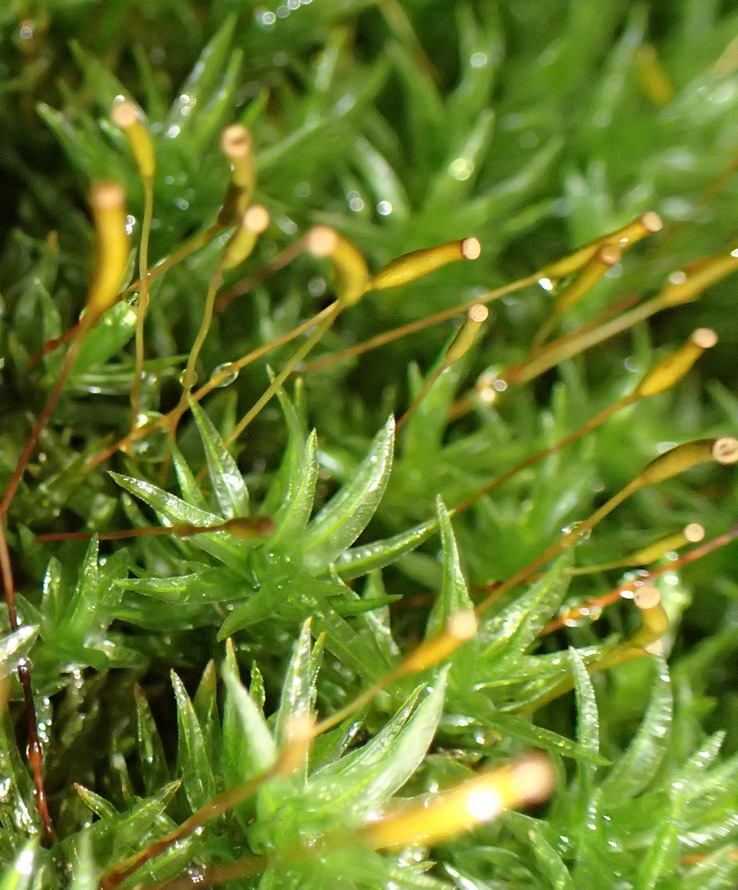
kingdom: Plantae
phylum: Bryophyta
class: Polytrichopsida
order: Polytrichales
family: Polytrichaceae
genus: Atrichum
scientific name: Atrichum androgynum
